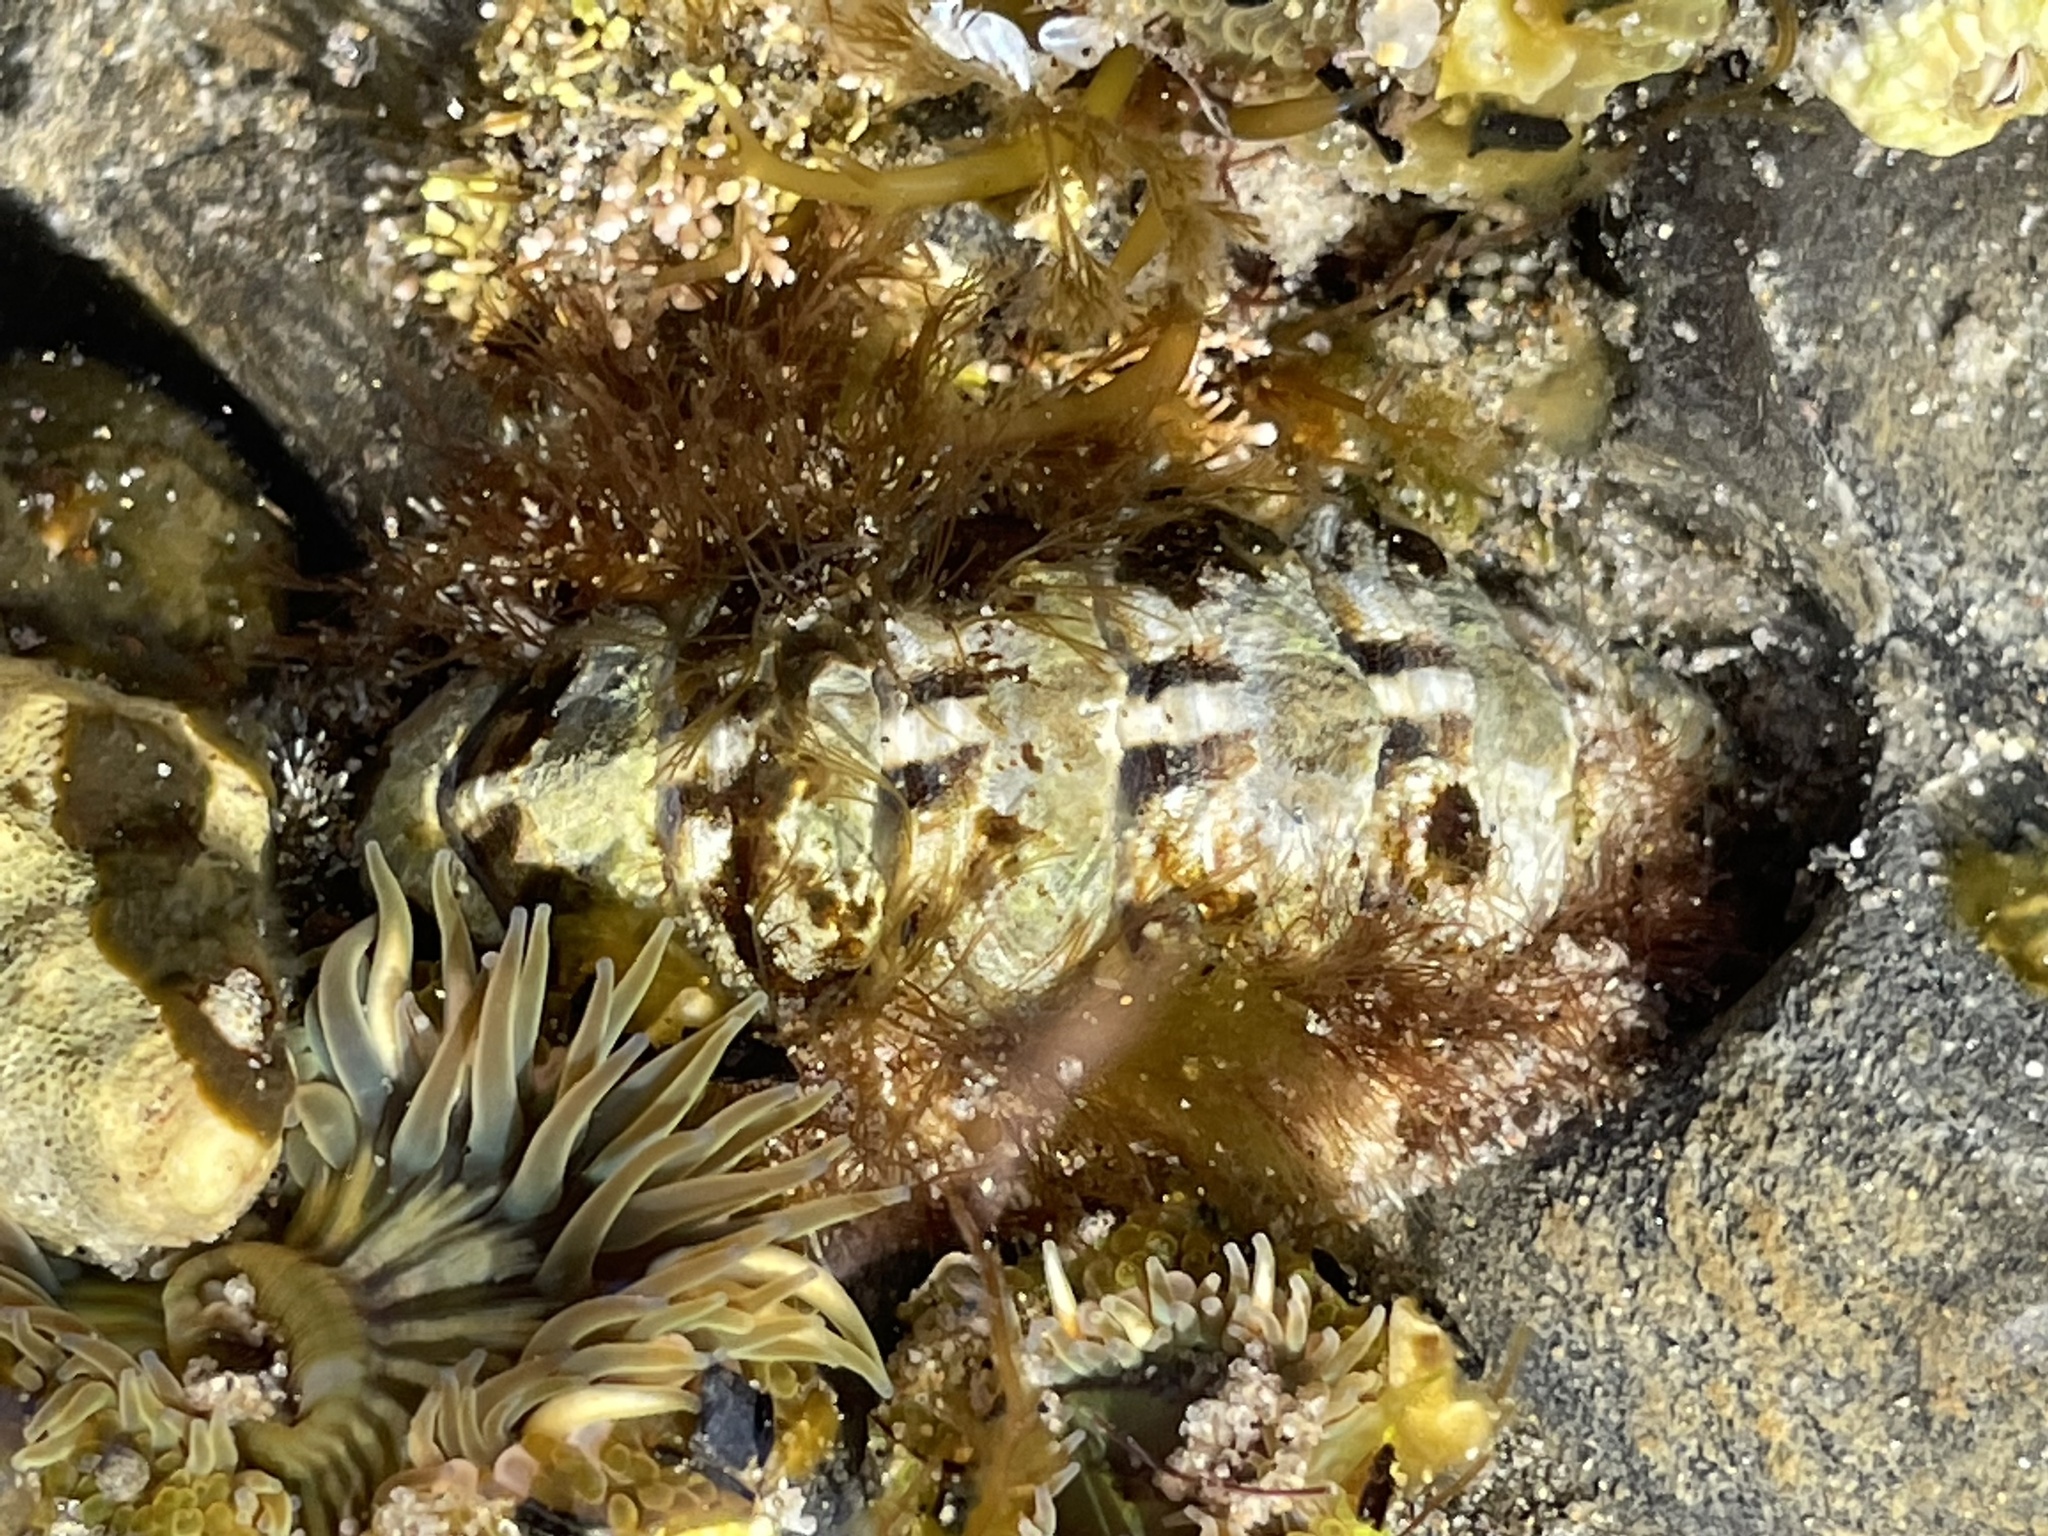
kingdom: Animalia
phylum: Mollusca
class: Polyplacophora
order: Chitonida
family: Tonicellidae
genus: Nuttallina
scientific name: Nuttallina californica
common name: California nuttall chiton
